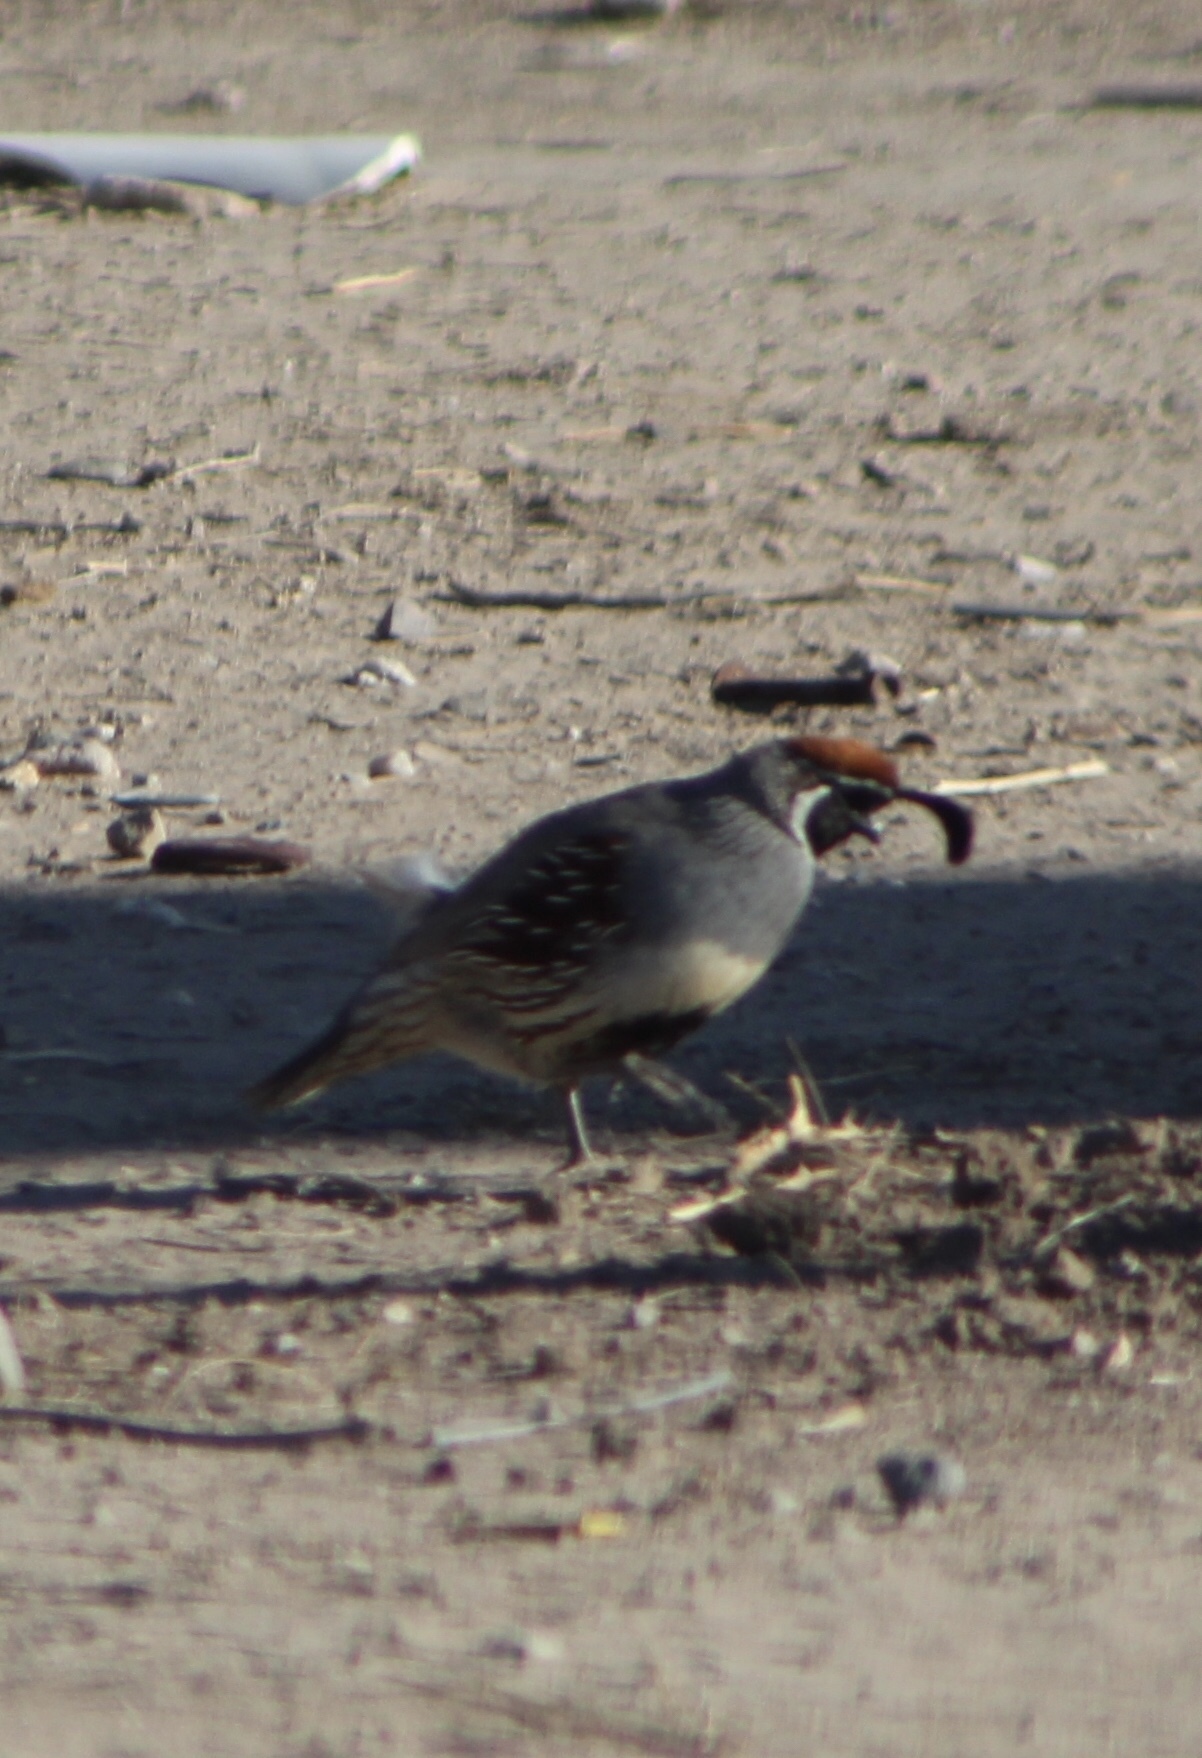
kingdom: Animalia
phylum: Chordata
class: Aves
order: Galliformes
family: Odontophoridae
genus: Callipepla
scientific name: Callipepla gambelii
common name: Gambel's quail
